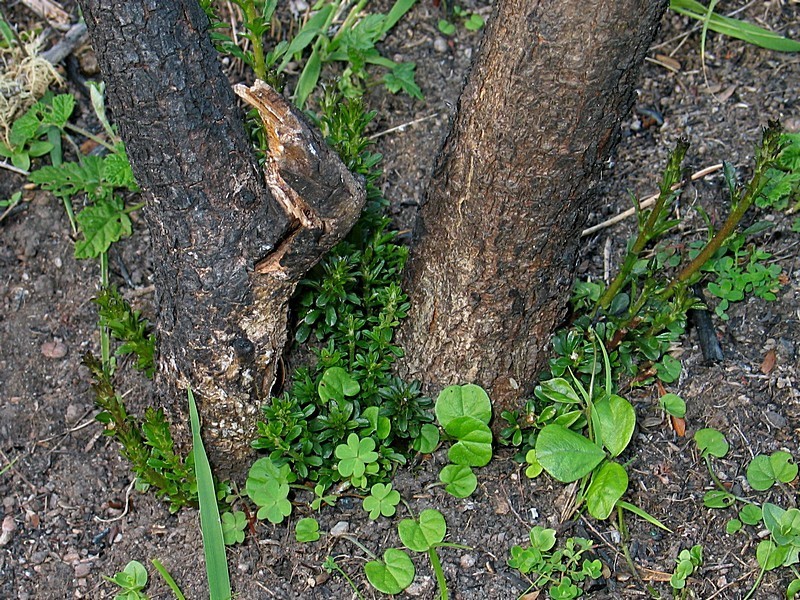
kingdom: Plantae
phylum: Tracheophyta
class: Magnoliopsida
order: Apiales
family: Pittosporaceae
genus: Bursaria
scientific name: Bursaria spinosa
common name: Australian blackthorn
